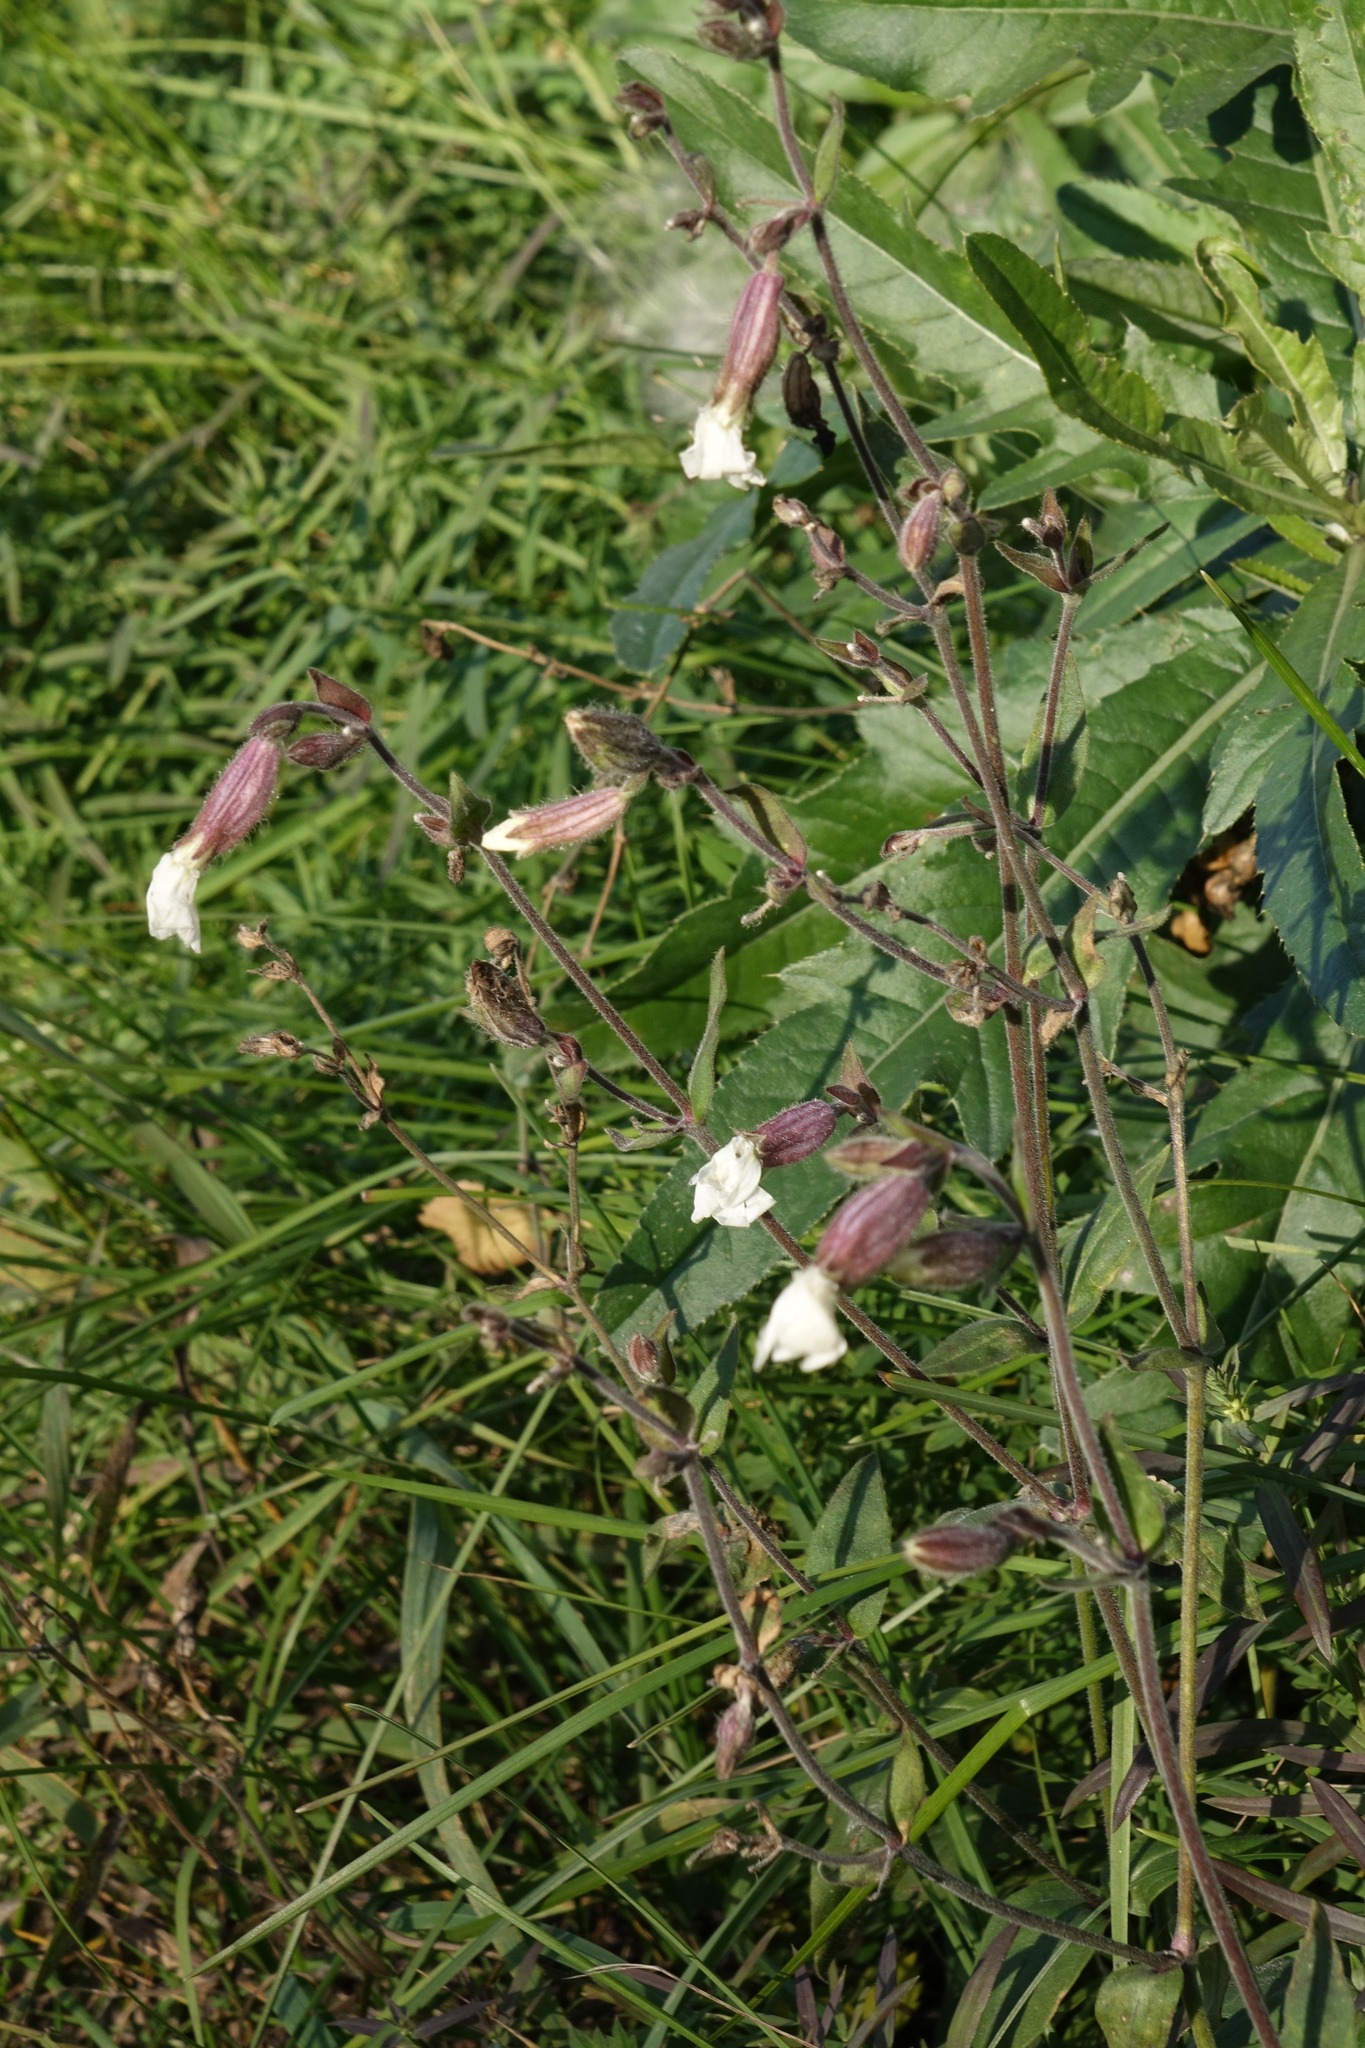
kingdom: Plantae
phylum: Tracheophyta
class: Magnoliopsida
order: Caryophyllales
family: Caryophyllaceae
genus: Silene
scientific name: Silene latifolia
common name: White campion
